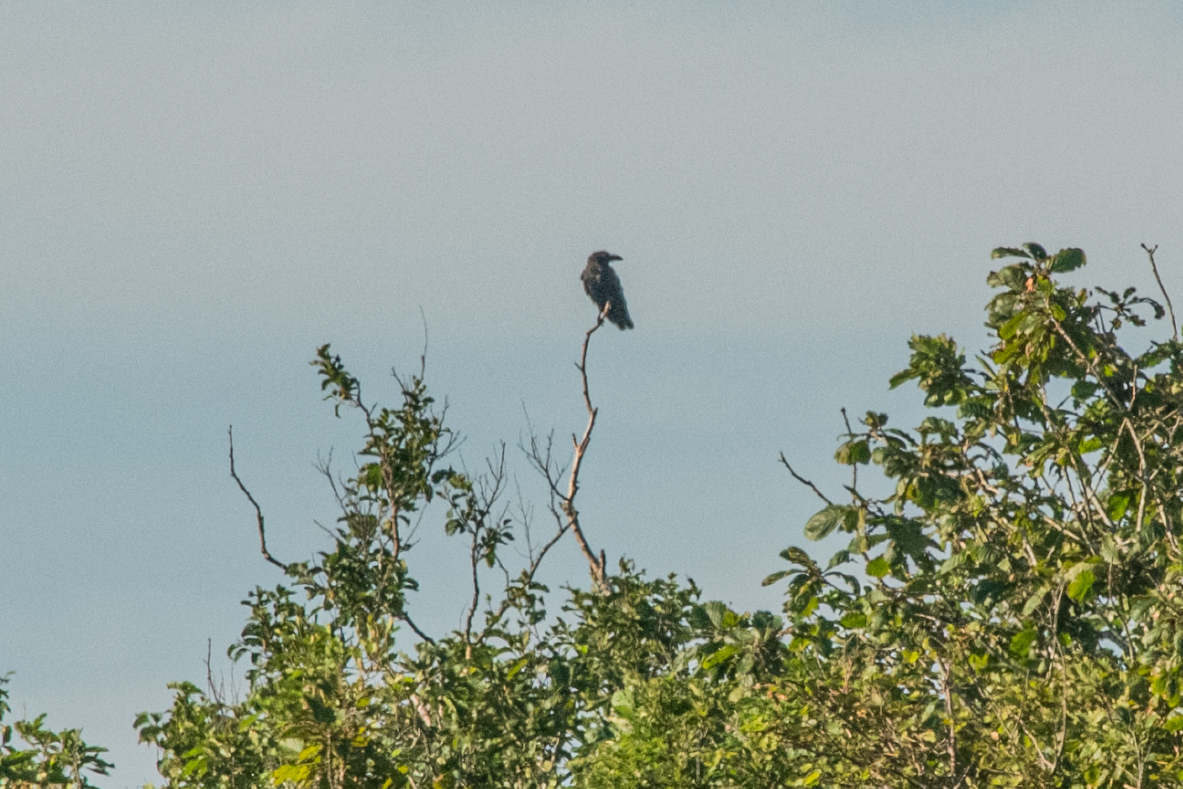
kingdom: Animalia
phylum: Chordata
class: Aves
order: Passeriformes
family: Corvidae
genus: Corvus
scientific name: Corvus macrorhynchos
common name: Large-billed crow
